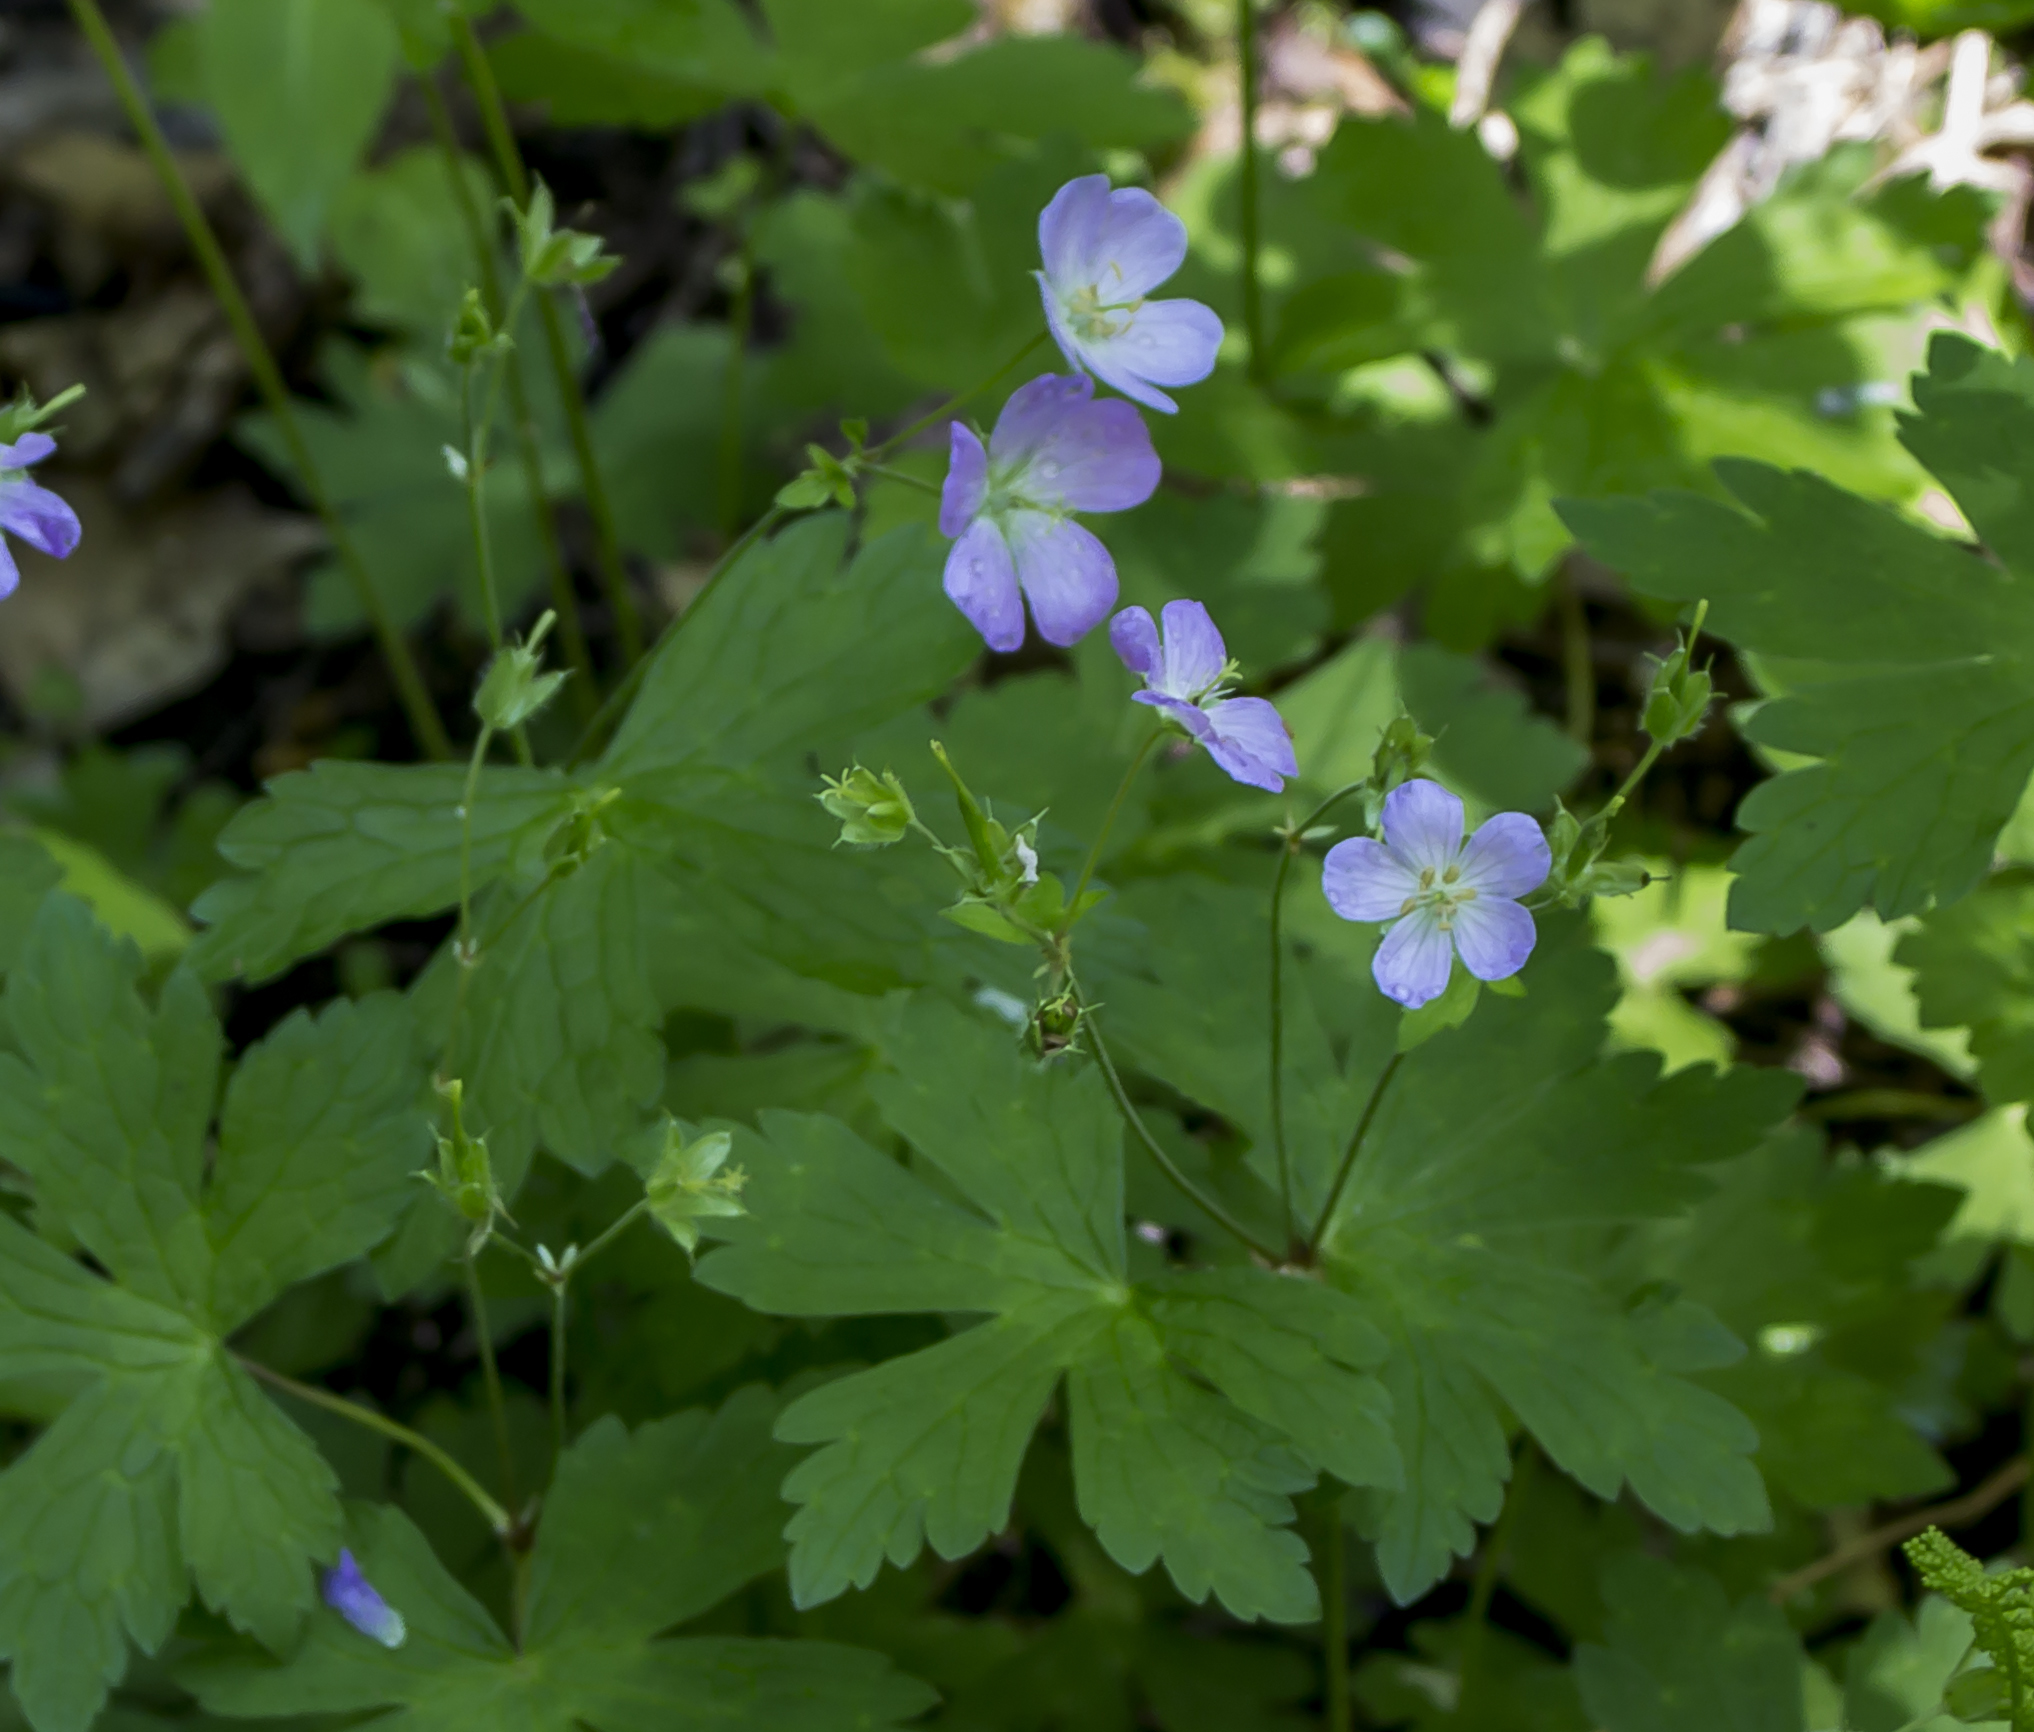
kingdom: Plantae
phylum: Tracheophyta
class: Magnoliopsida
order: Geraniales
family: Geraniaceae
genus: Geranium
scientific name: Geranium maculatum
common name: Spotted geranium
